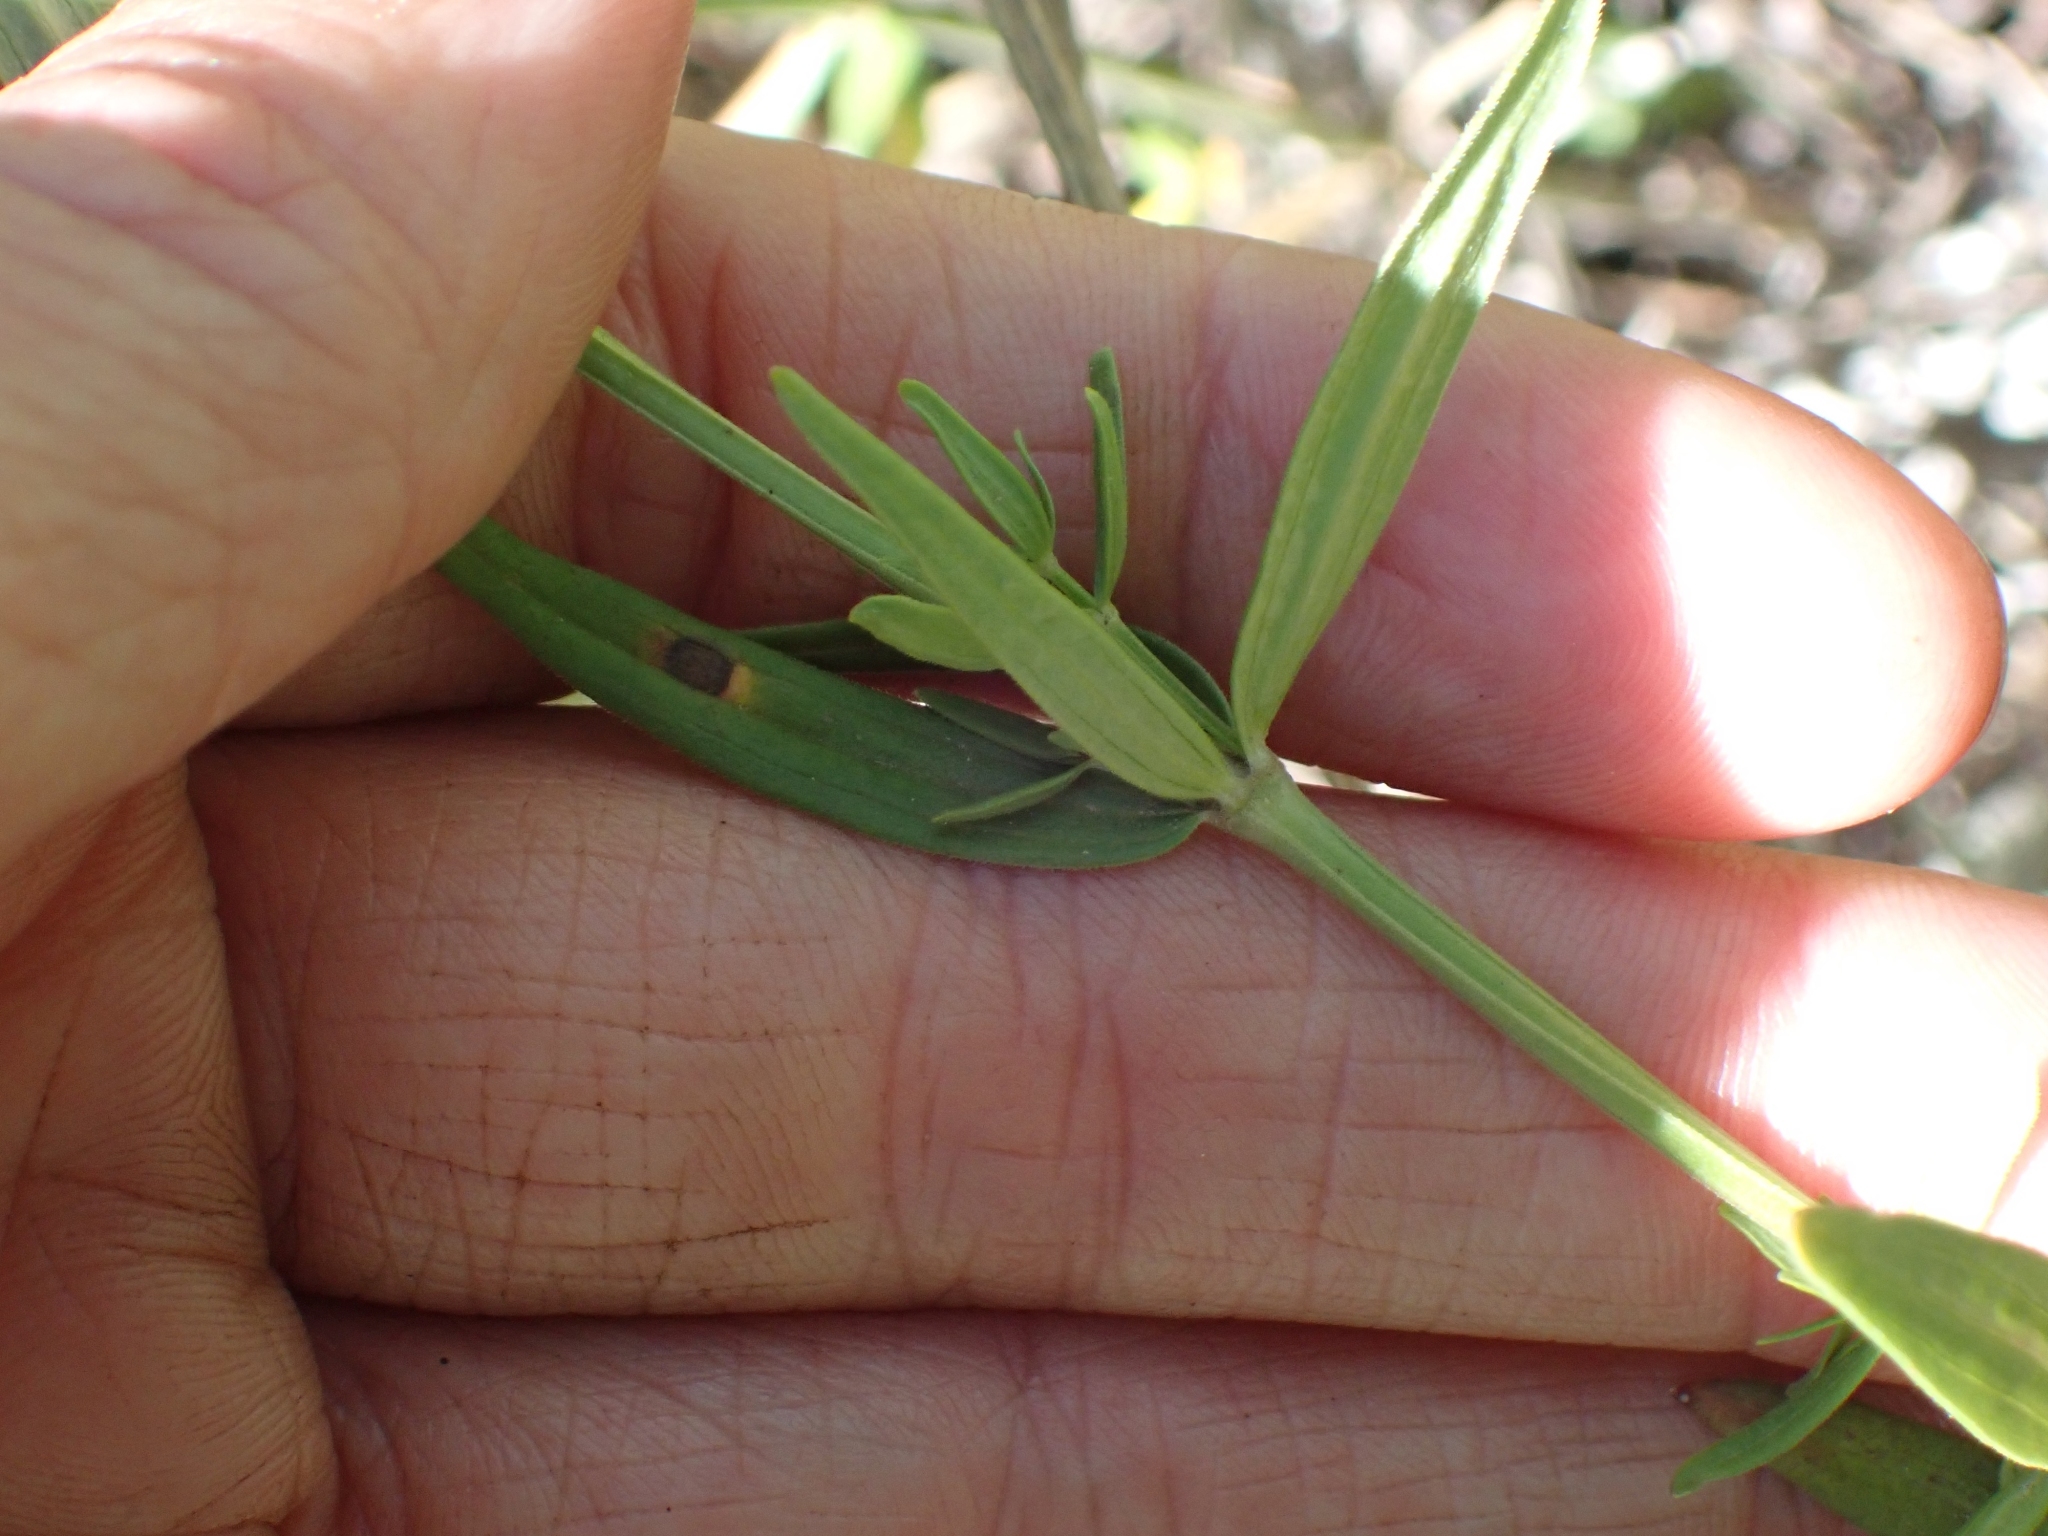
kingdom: Plantae
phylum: Tracheophyta
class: Magnoliopsida
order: Gentianales
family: Rubiaceae
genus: Galium
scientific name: Galium boreale
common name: Northern bedstraw
